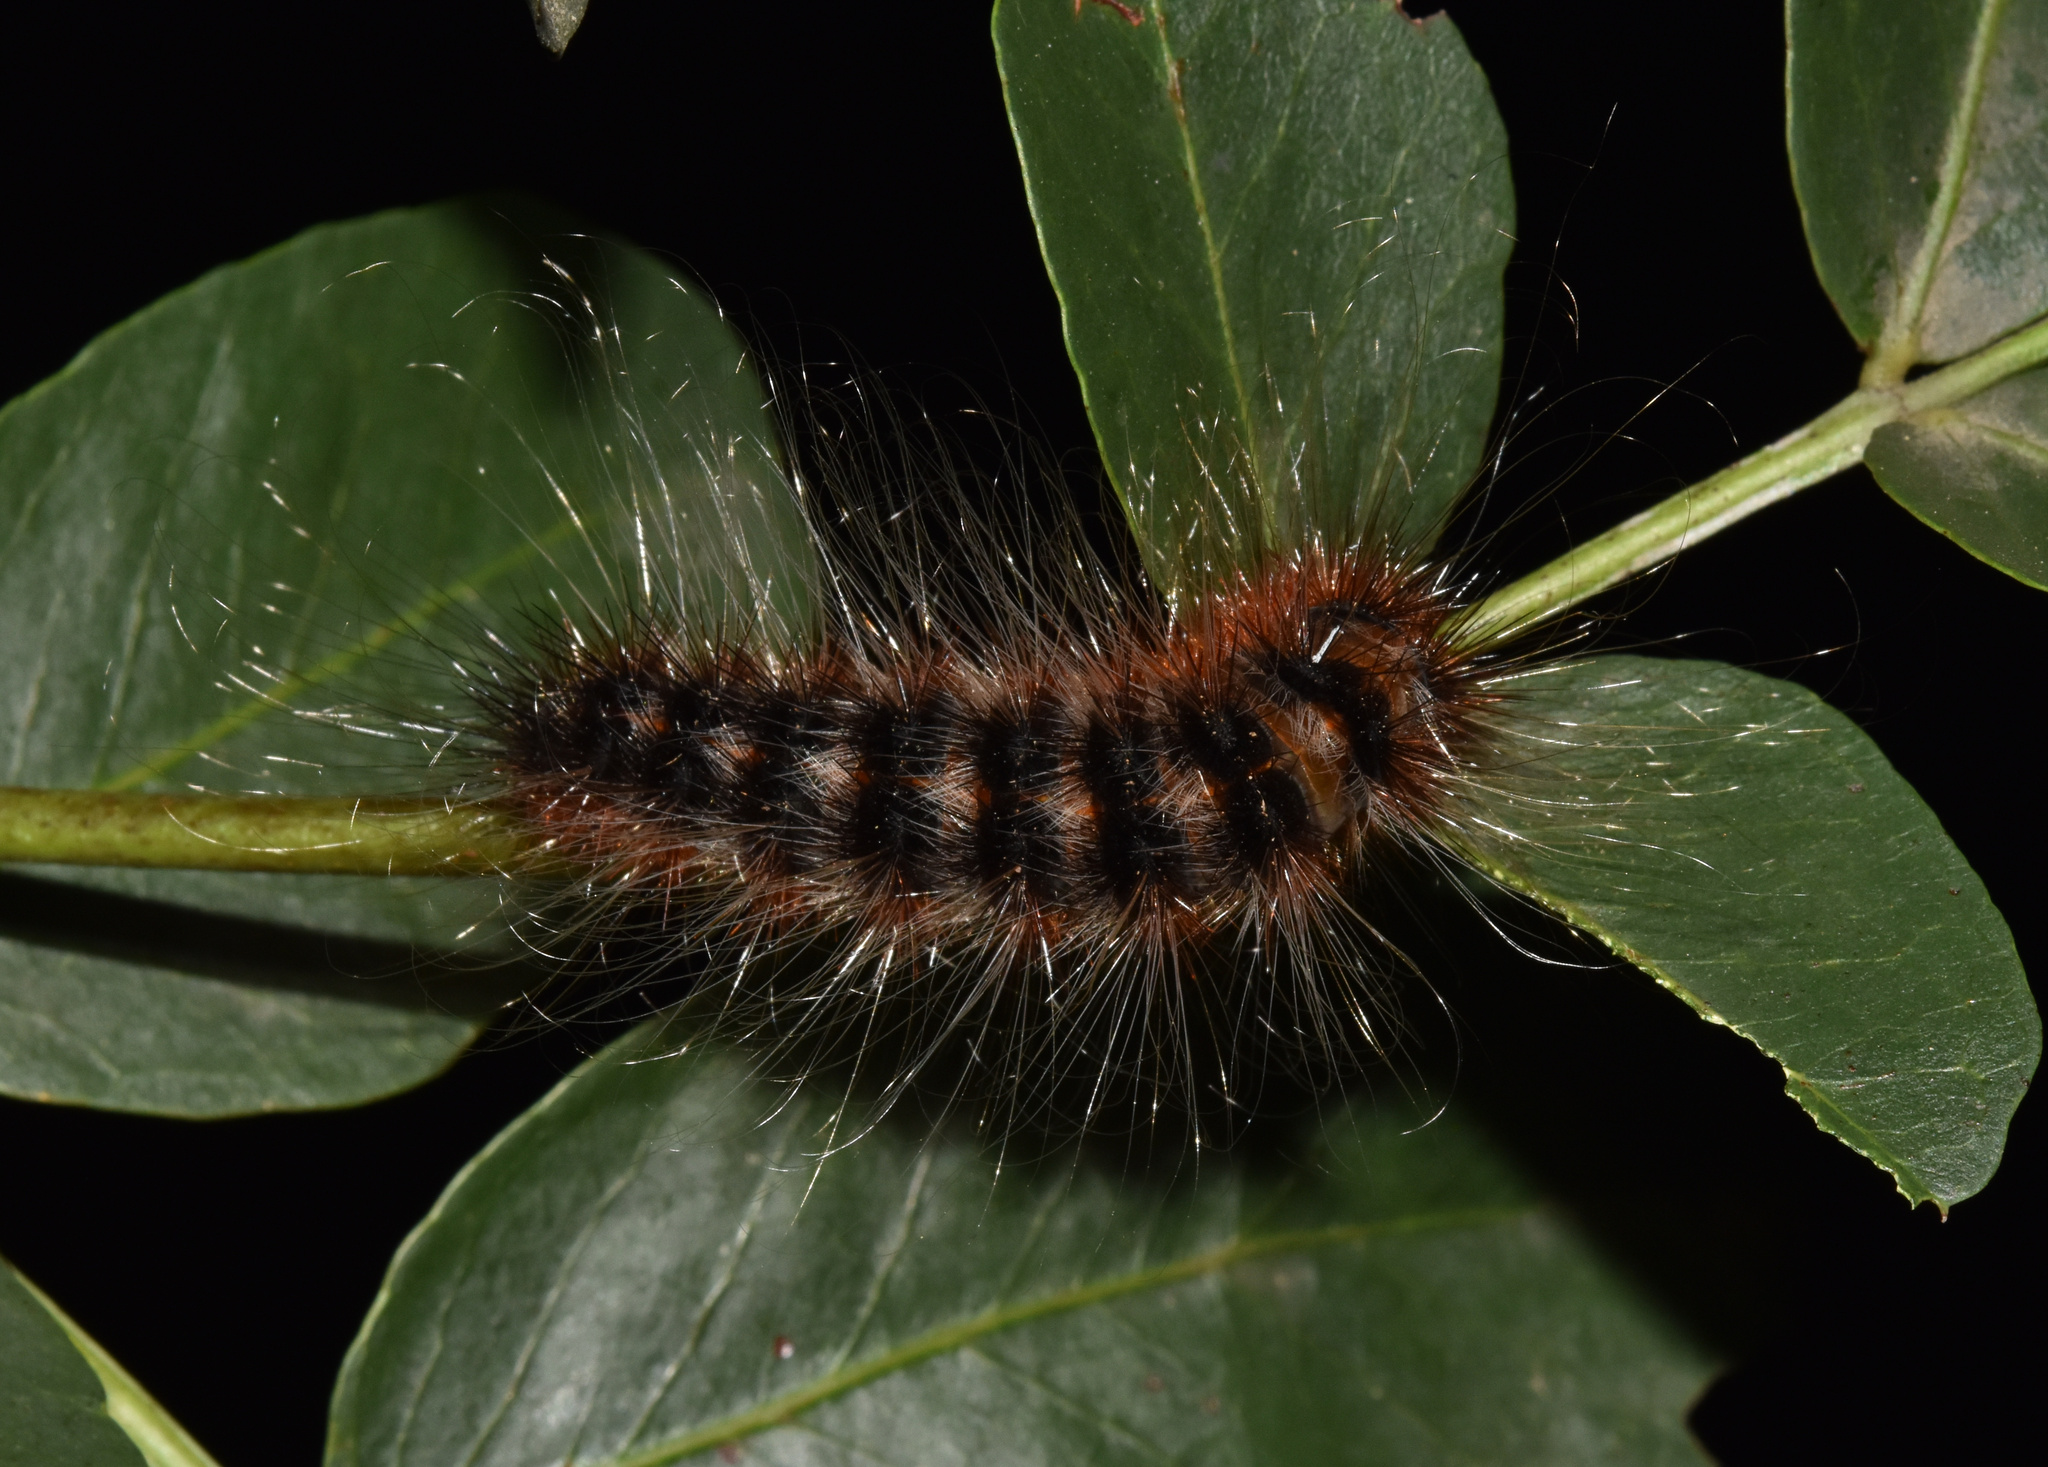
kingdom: Animalia
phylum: Arthropoda
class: Insecta
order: Lepidoptera
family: Eupterotidae
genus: Striphnopteryx
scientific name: Striphnopteryx edulis
